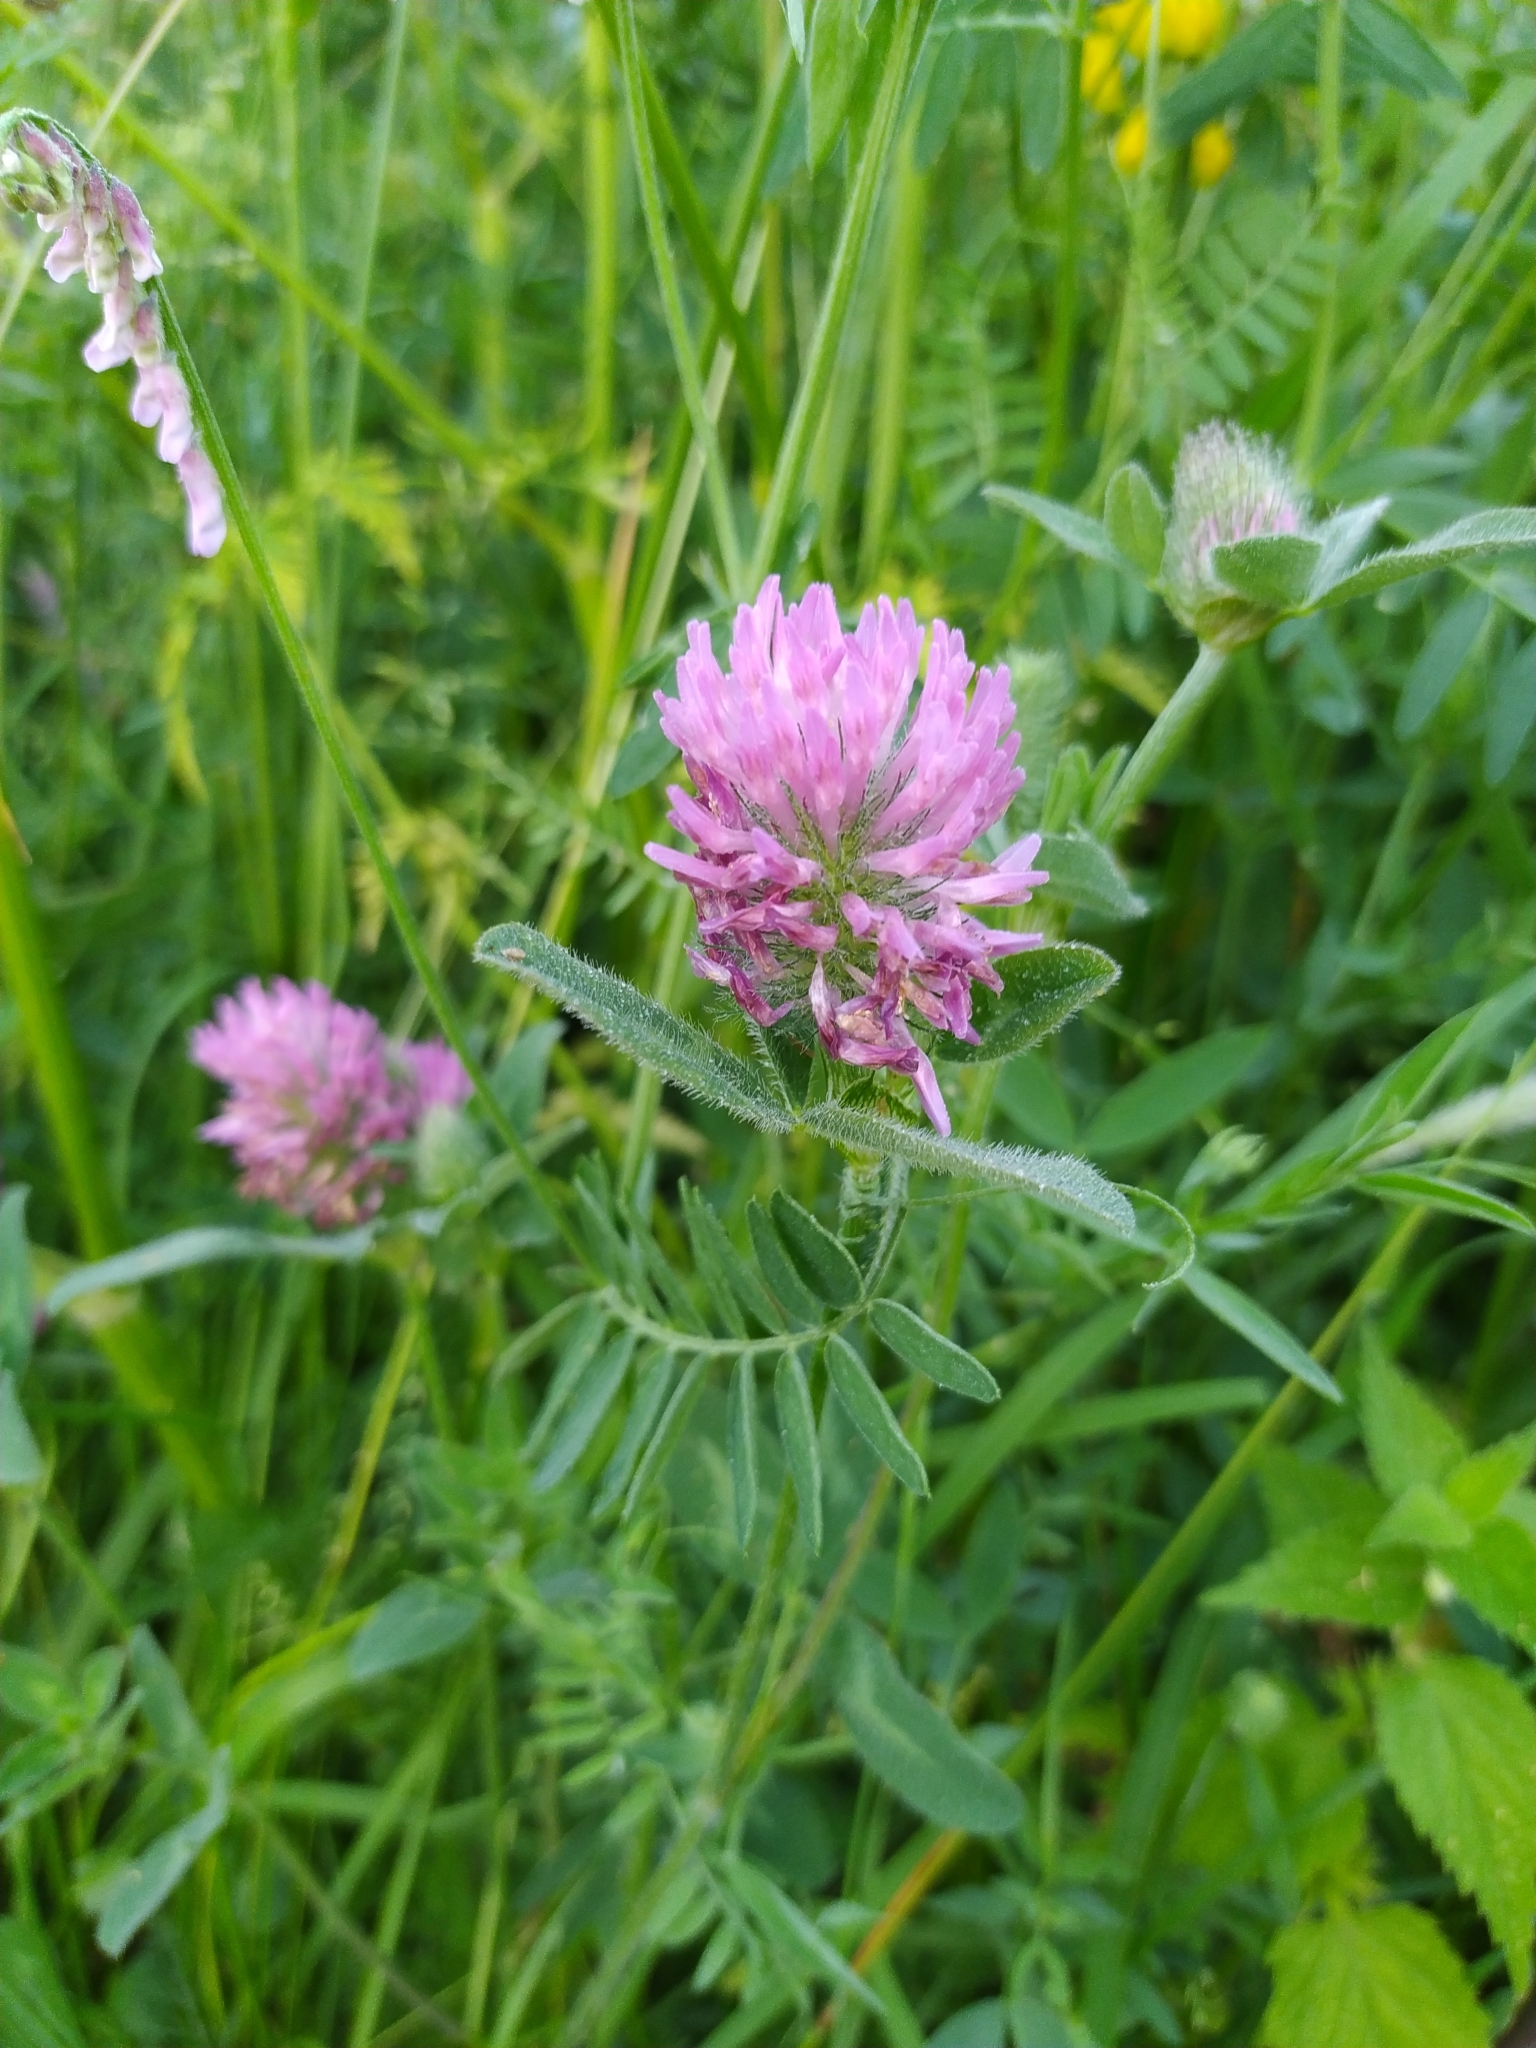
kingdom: Plantae
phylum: Tracheophyta
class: Magnoliopsida
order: Fabales
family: Fabaceae
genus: Trifolium
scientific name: Trifolium pratense
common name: Red clover
